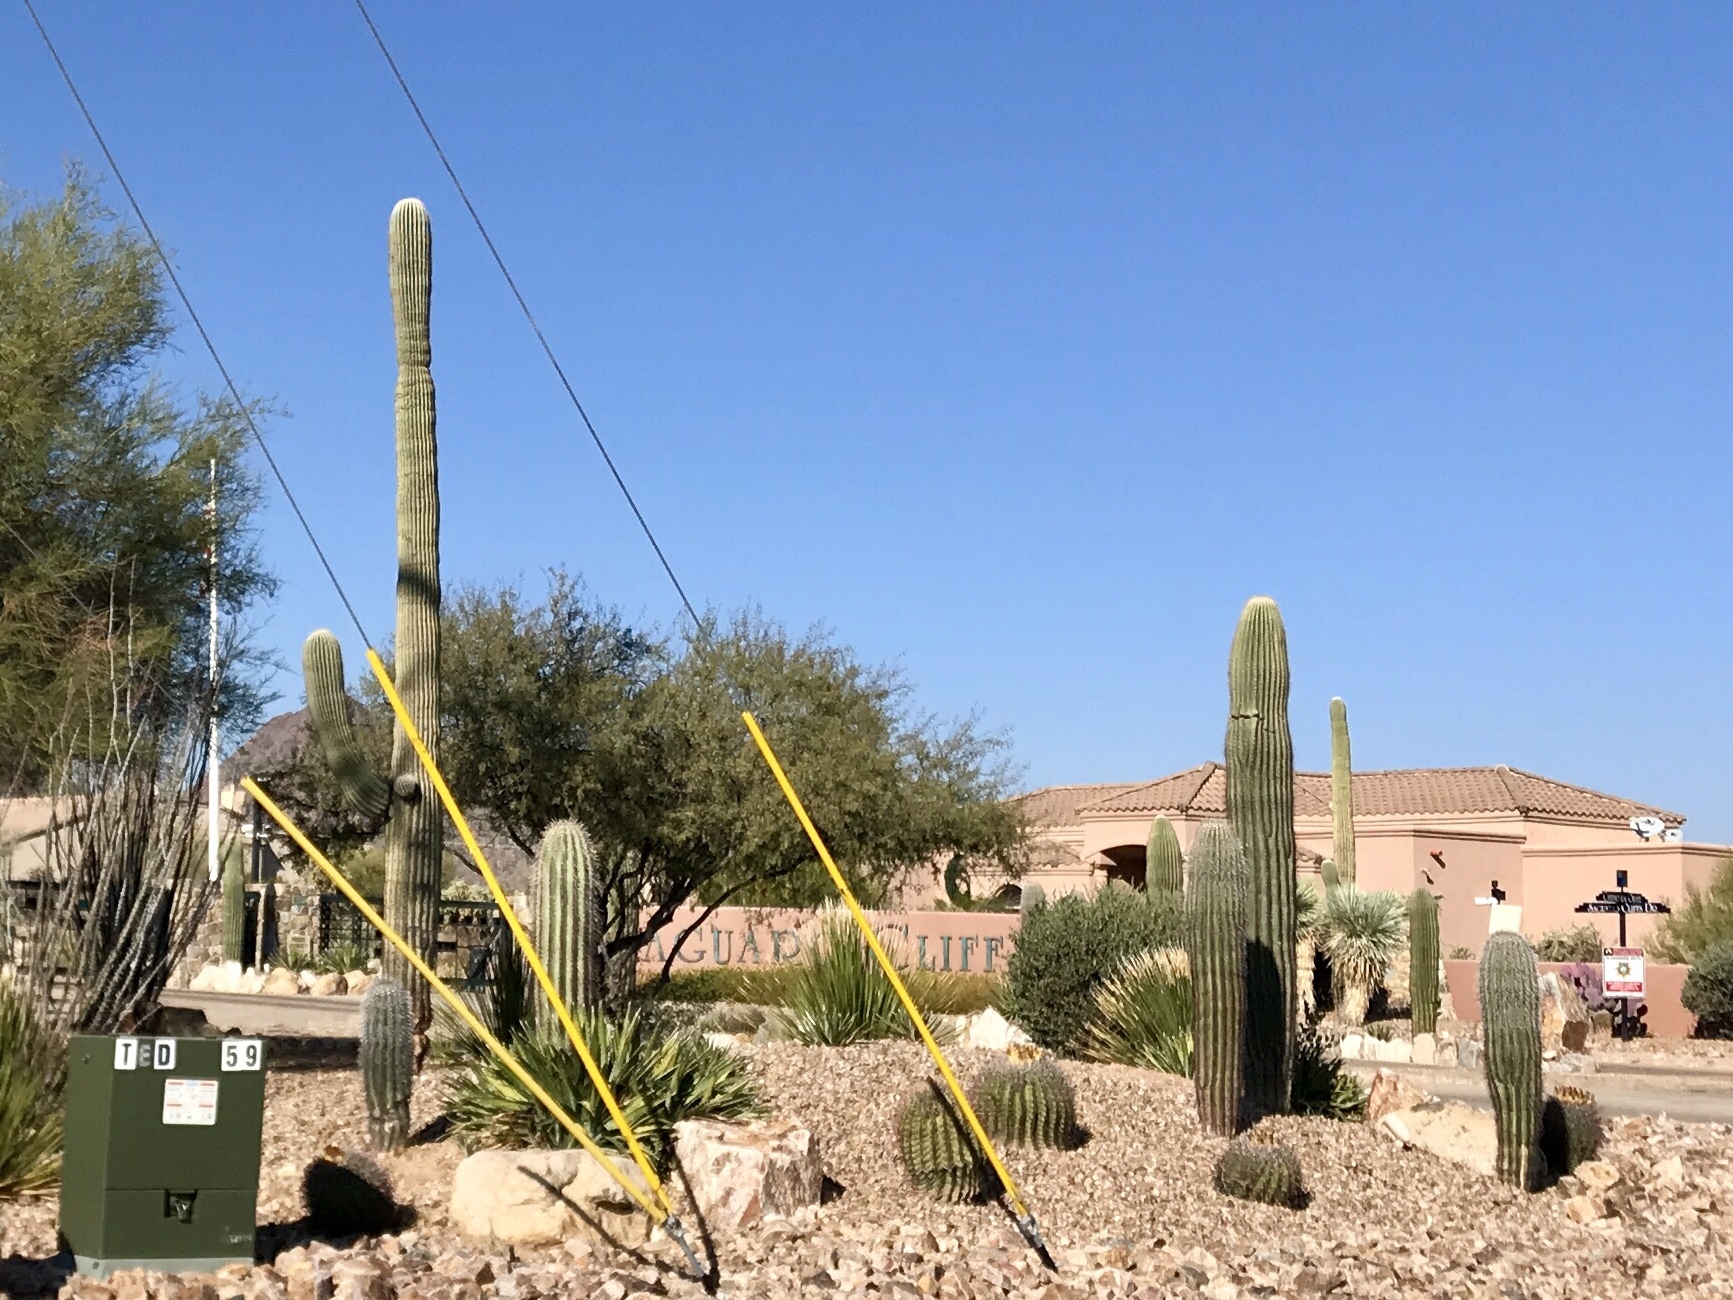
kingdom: Plantae
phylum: Tracheophyta
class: Magnoliopsida
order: Caryophyllales
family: Cactaceae
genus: Carnegiea
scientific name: Carnegiea gigantea
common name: Saguaro
